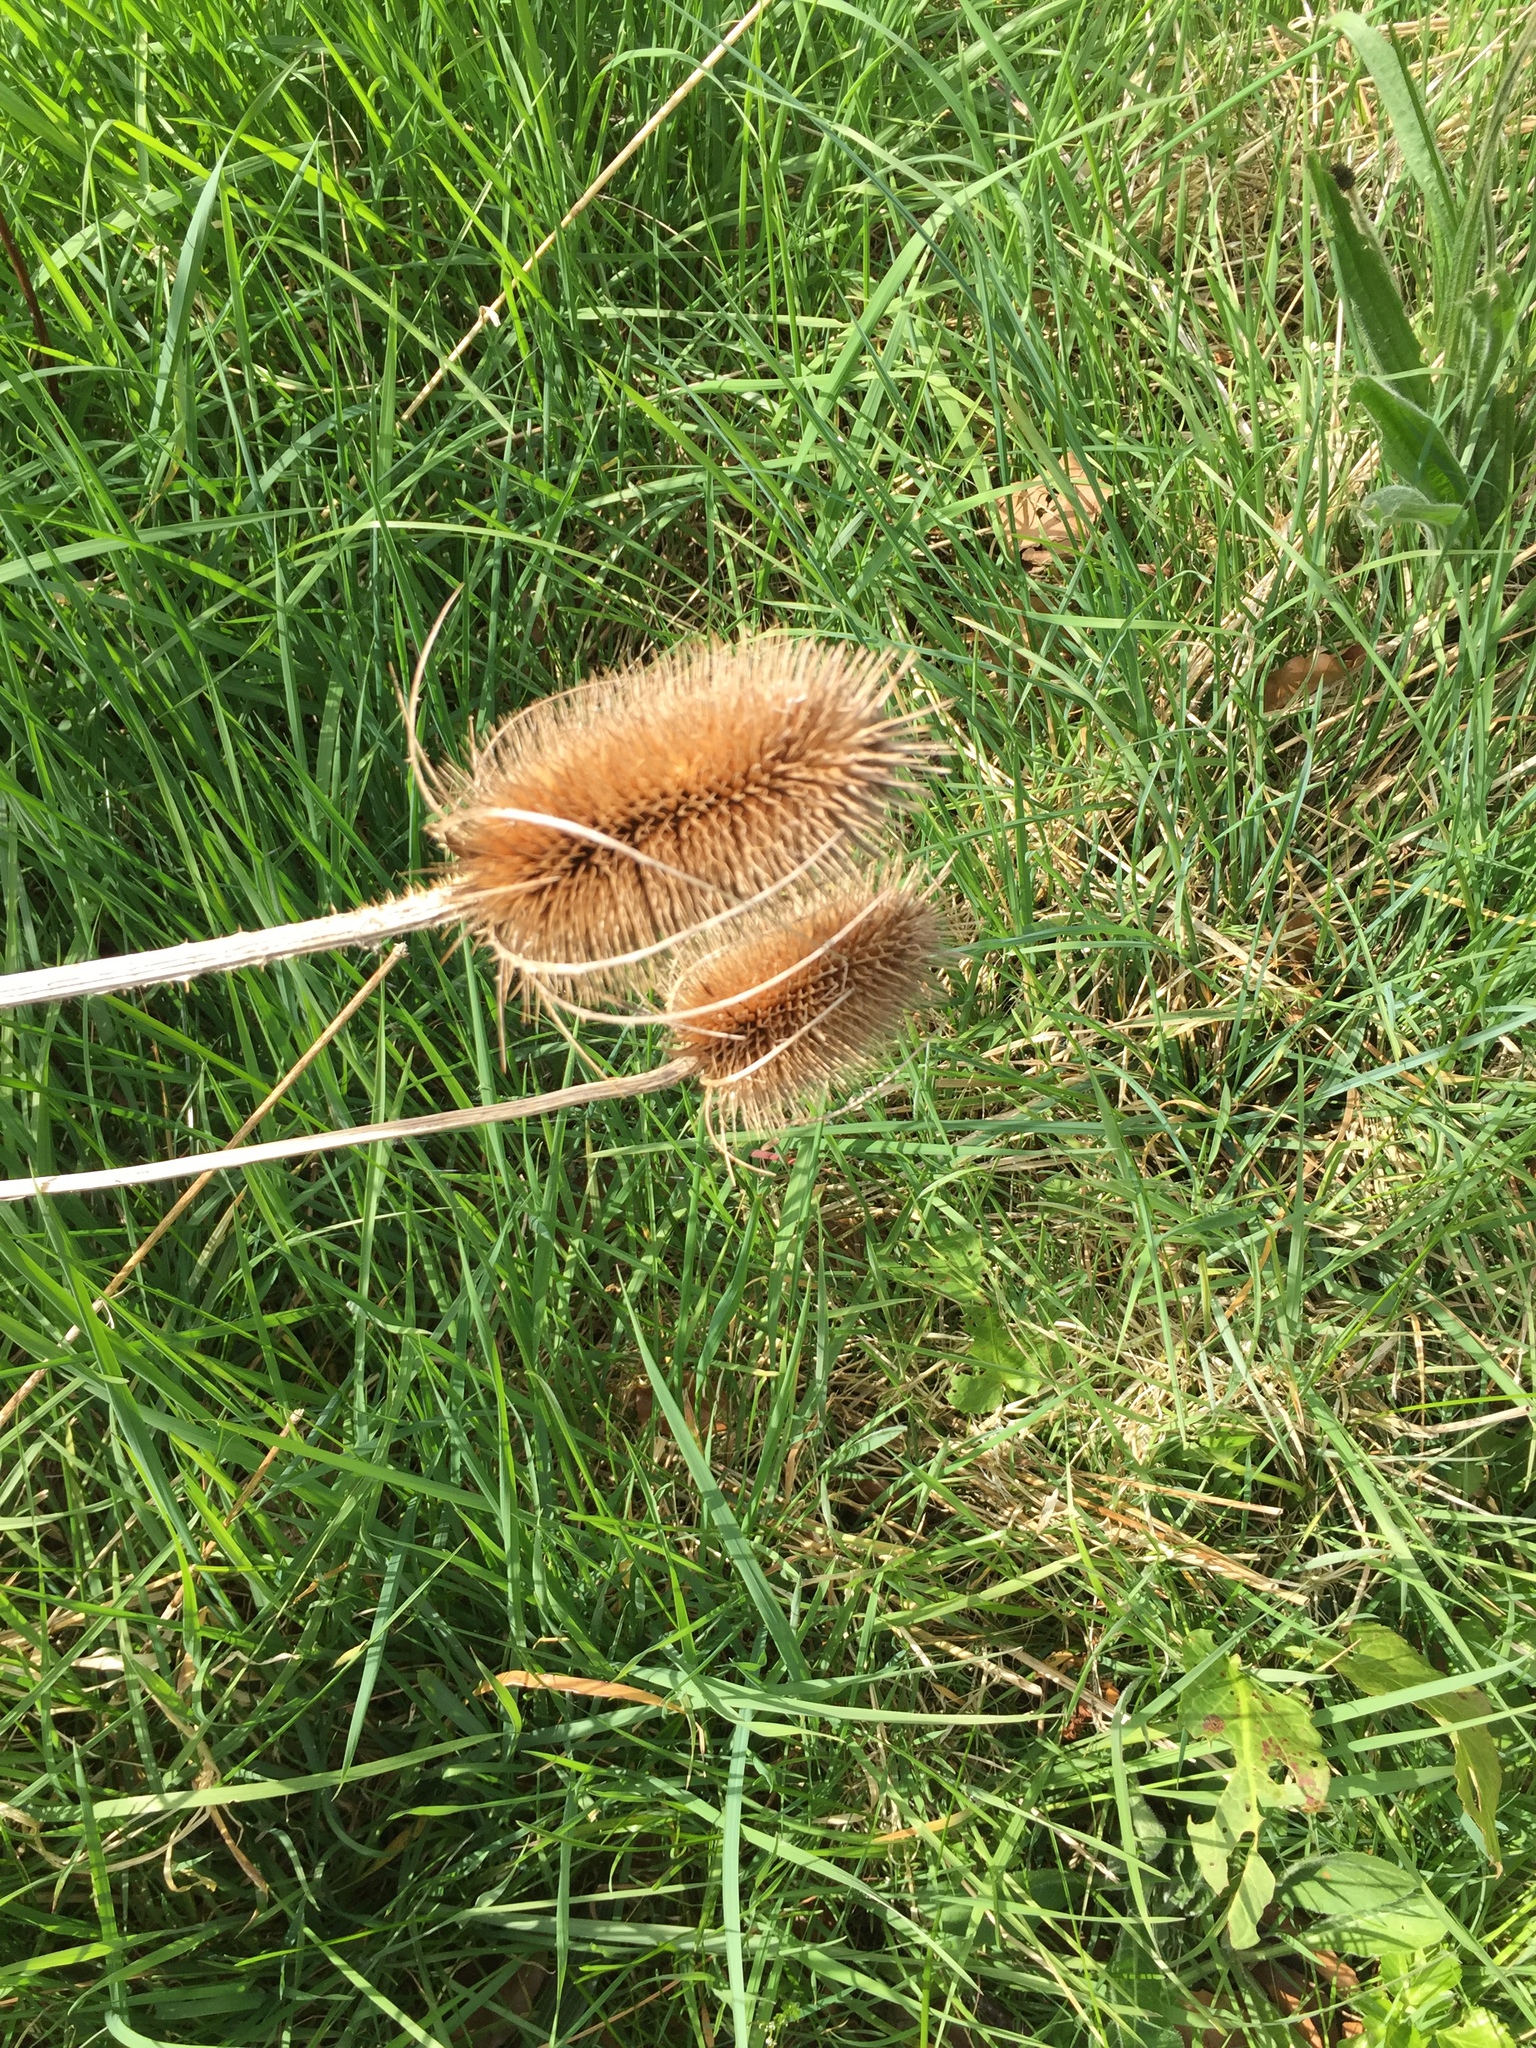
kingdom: Plantae
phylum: Tracheophyta
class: Magnoliopsida
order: Dipsacales
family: Caprifoliaceae
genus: Dipsacus
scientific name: Dipsacus fullonum
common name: Teasel
